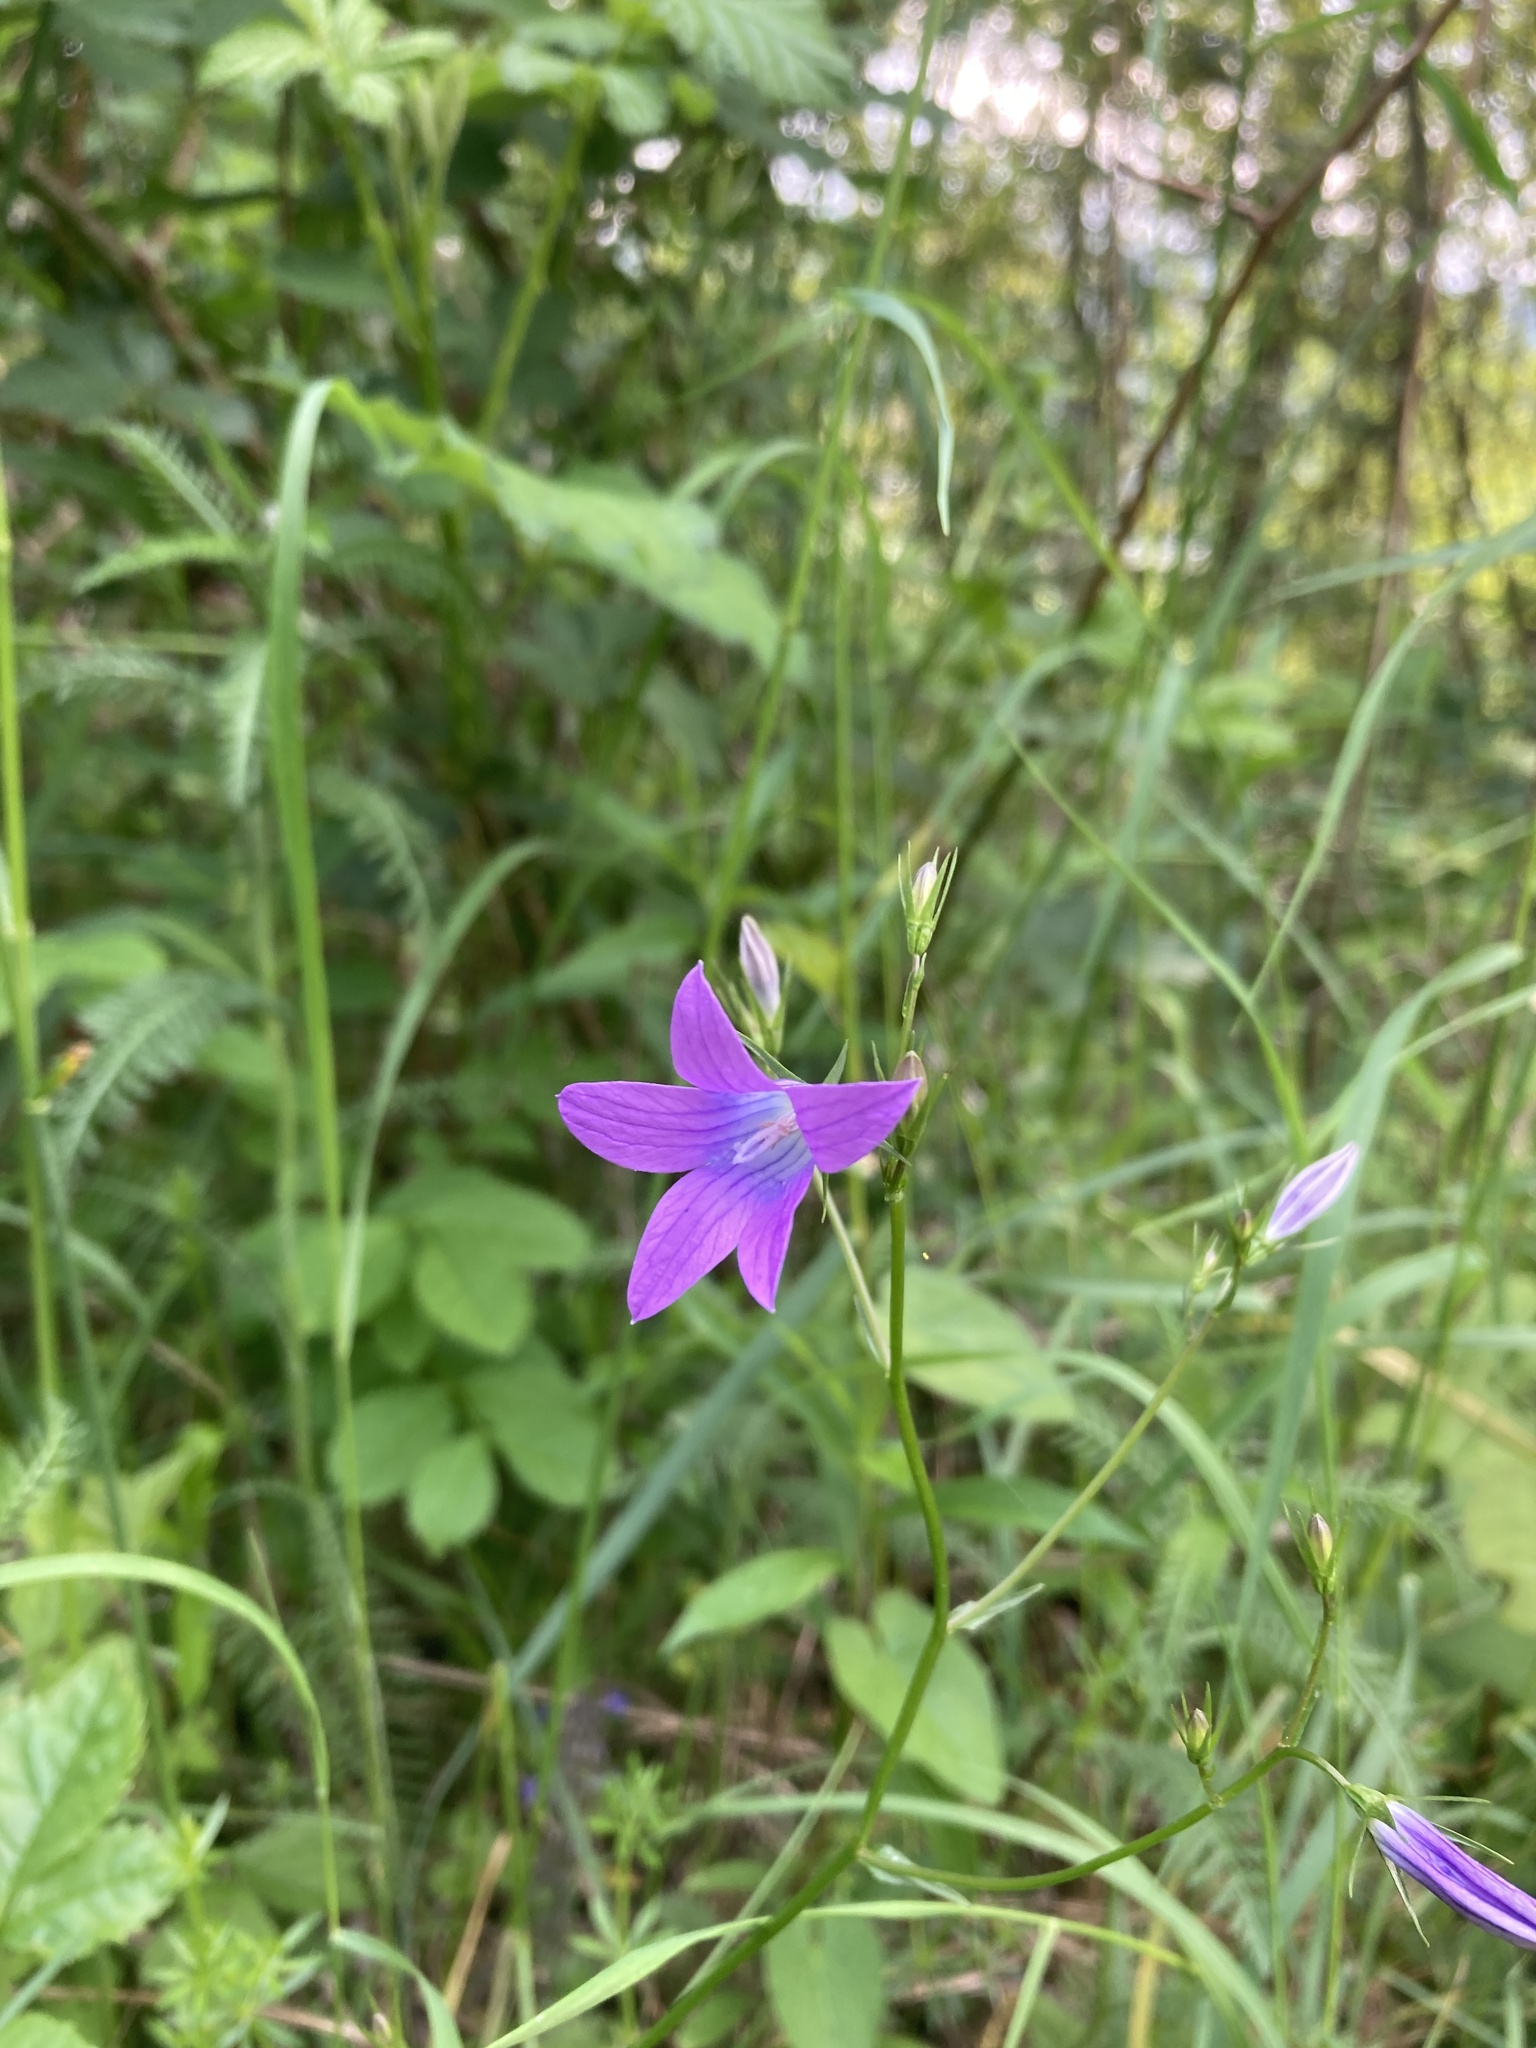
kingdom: Plantae
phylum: Tracheophyta
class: Magnoliopsida
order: Asterales
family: Campanulaceae
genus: Campanula
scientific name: Campanula patula
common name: Spreading bellflower
